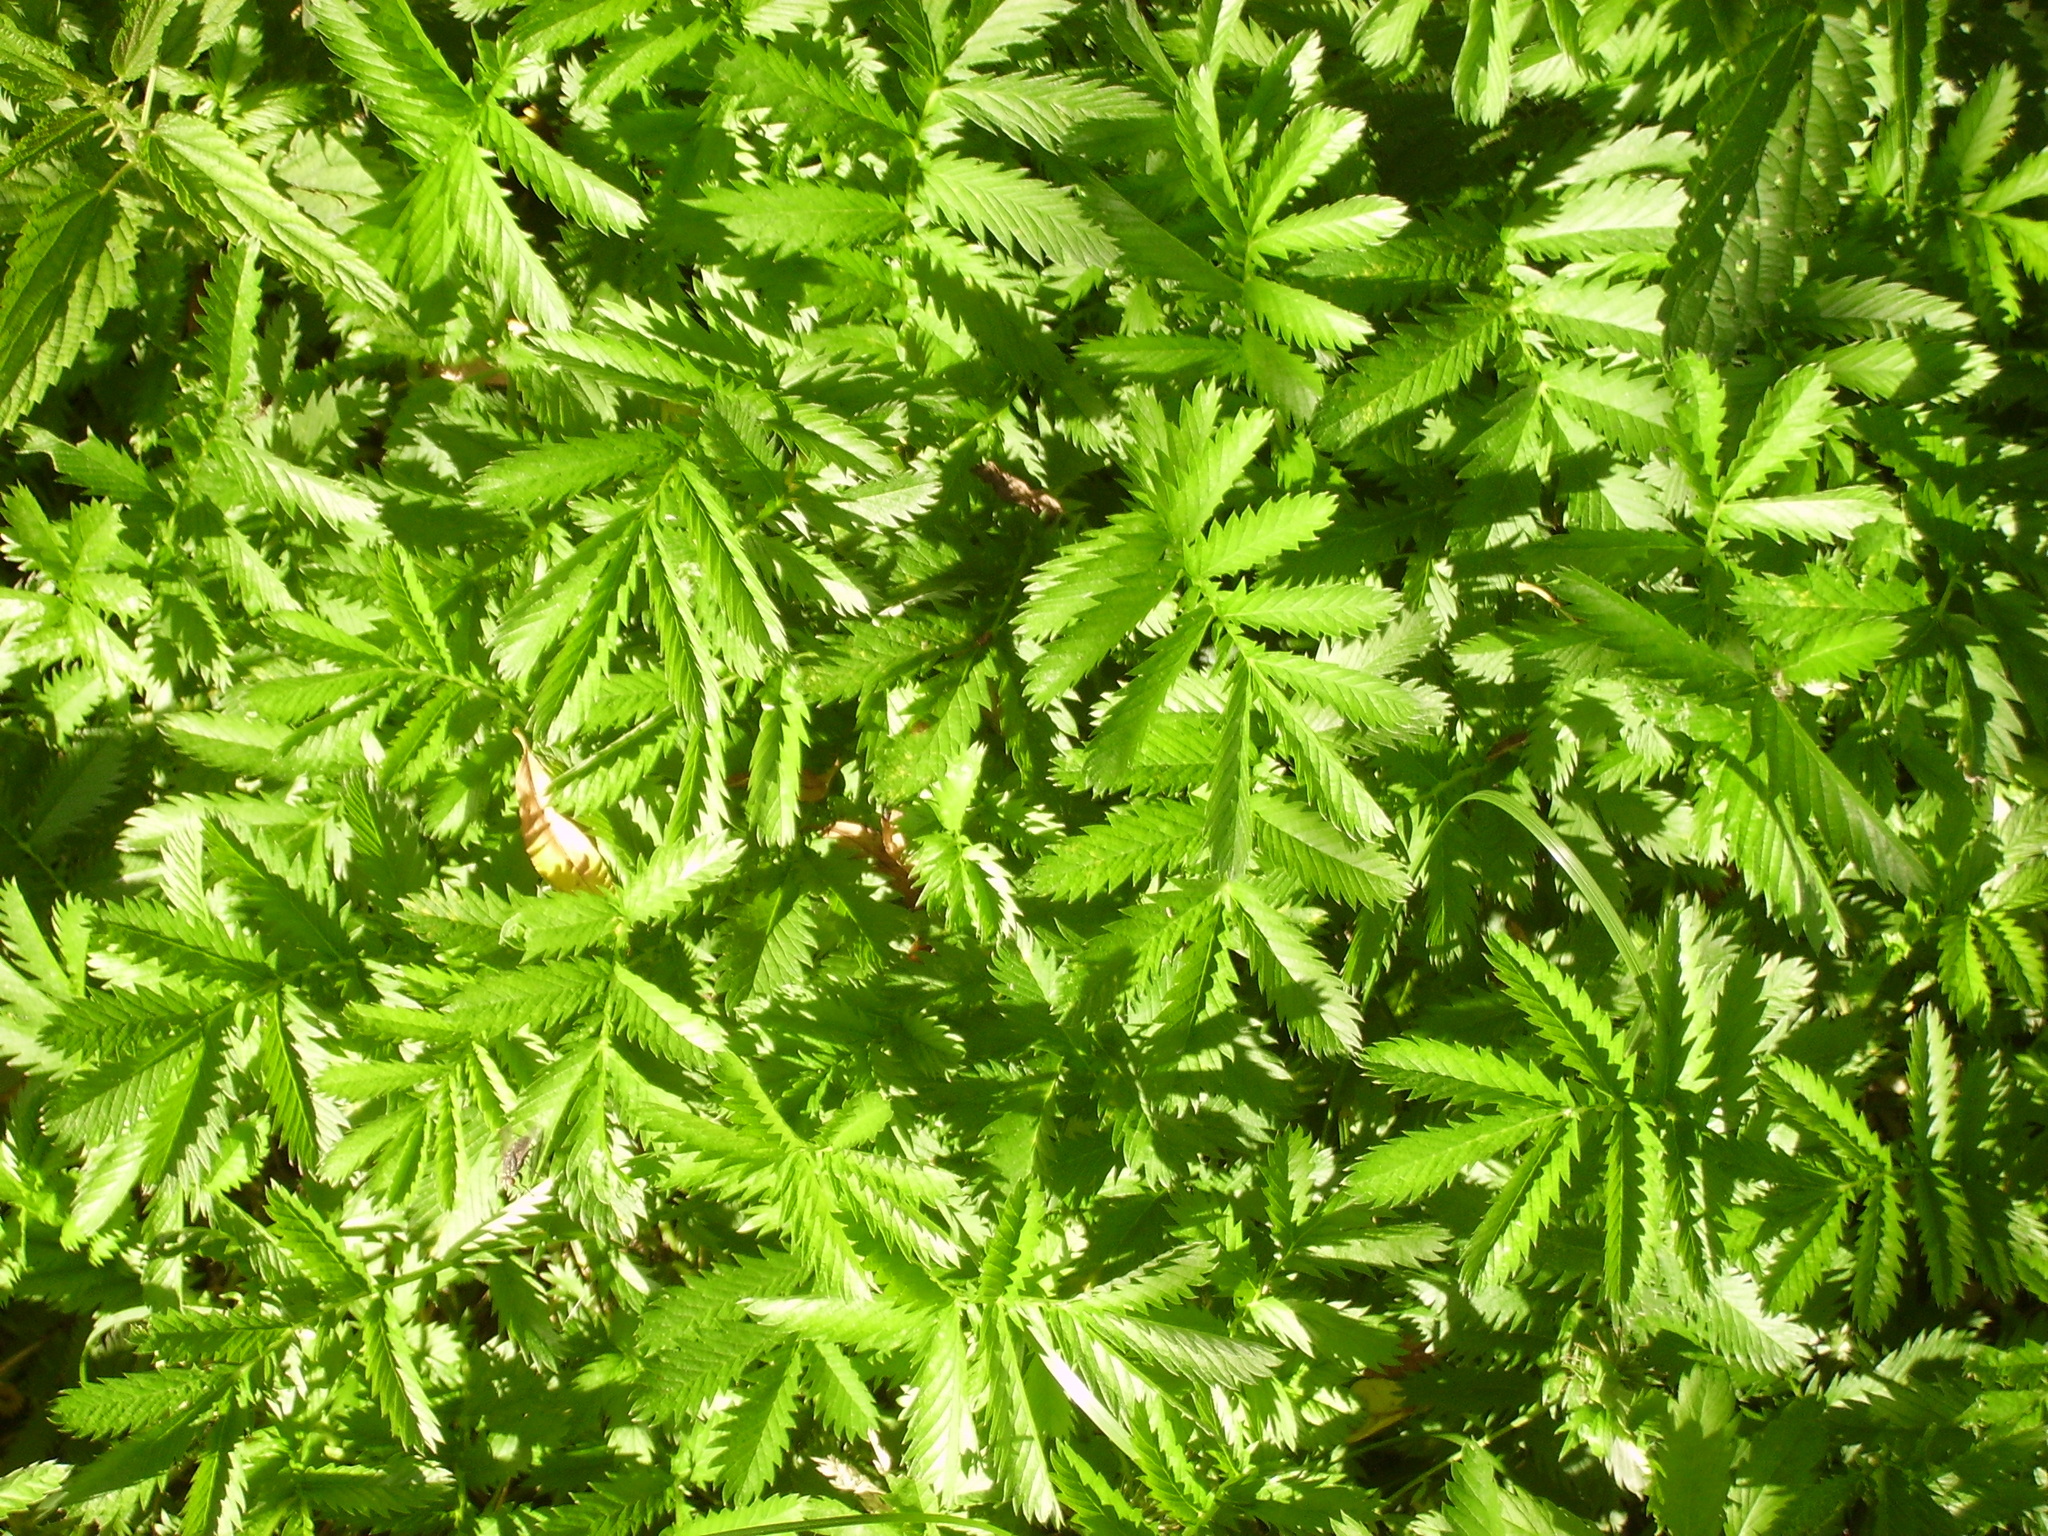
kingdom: Plantae
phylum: Tracheophyta
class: Magnoliopsida
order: Rosales
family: Rosaceae
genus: Argentina
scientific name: Argentina anserina
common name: Common silverweed
